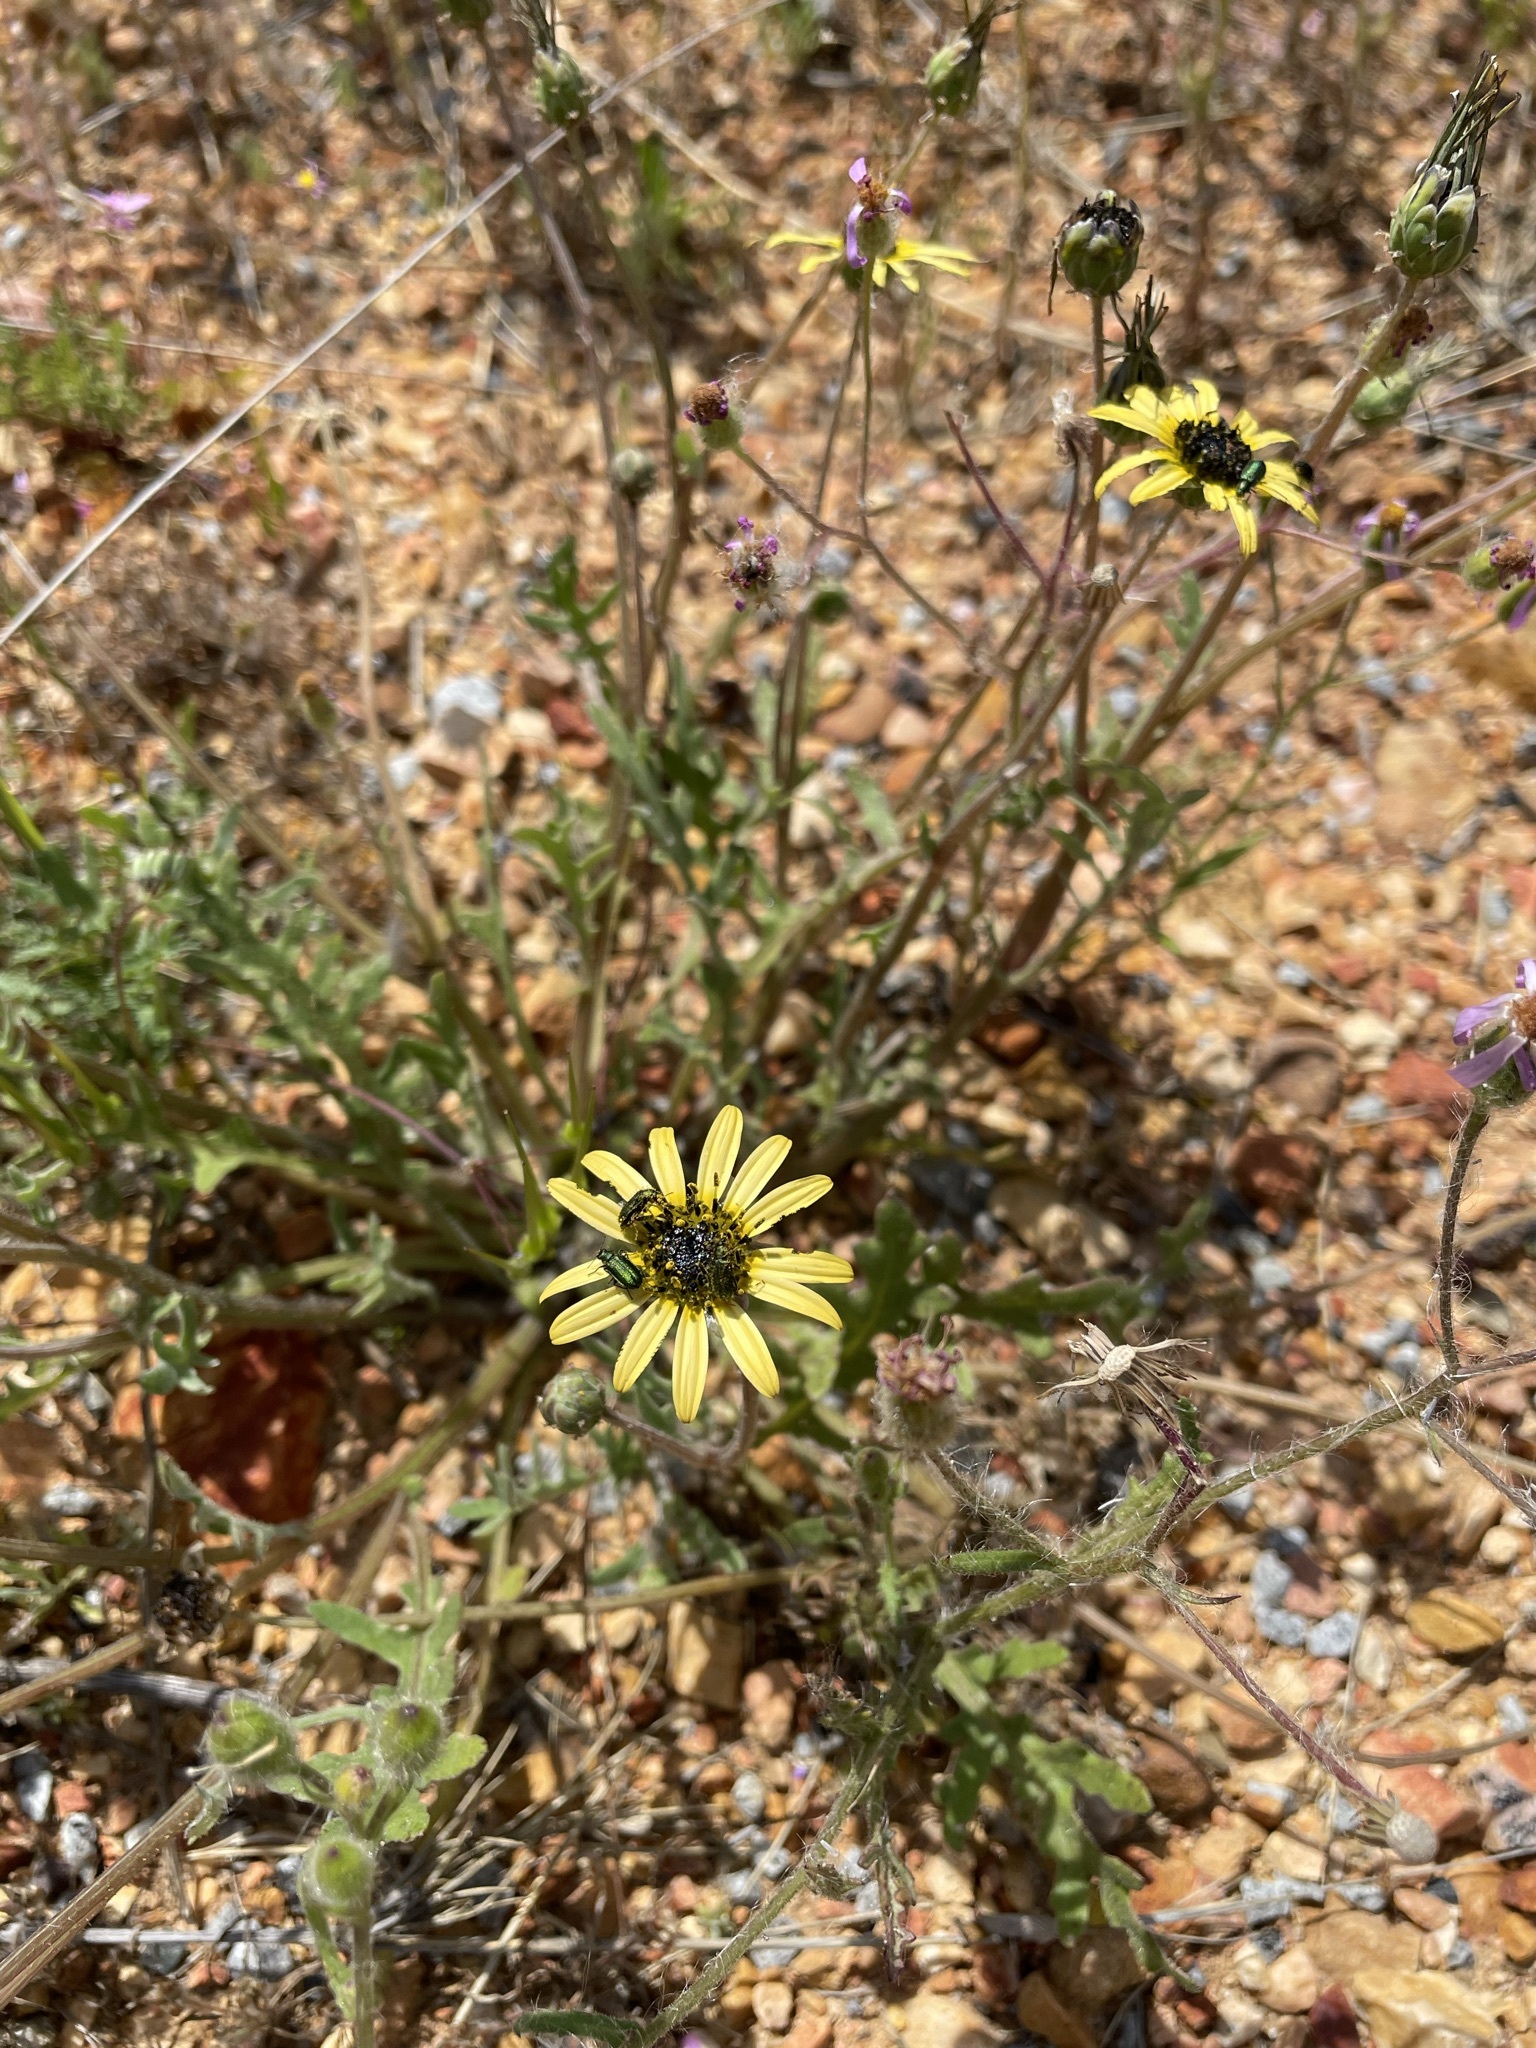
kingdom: Plantae
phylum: Tracheophyta
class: Magnoliopsida
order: Asterales
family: Asteraceae
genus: Arctotheca
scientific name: Arctotheca calendula
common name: Capeweed
